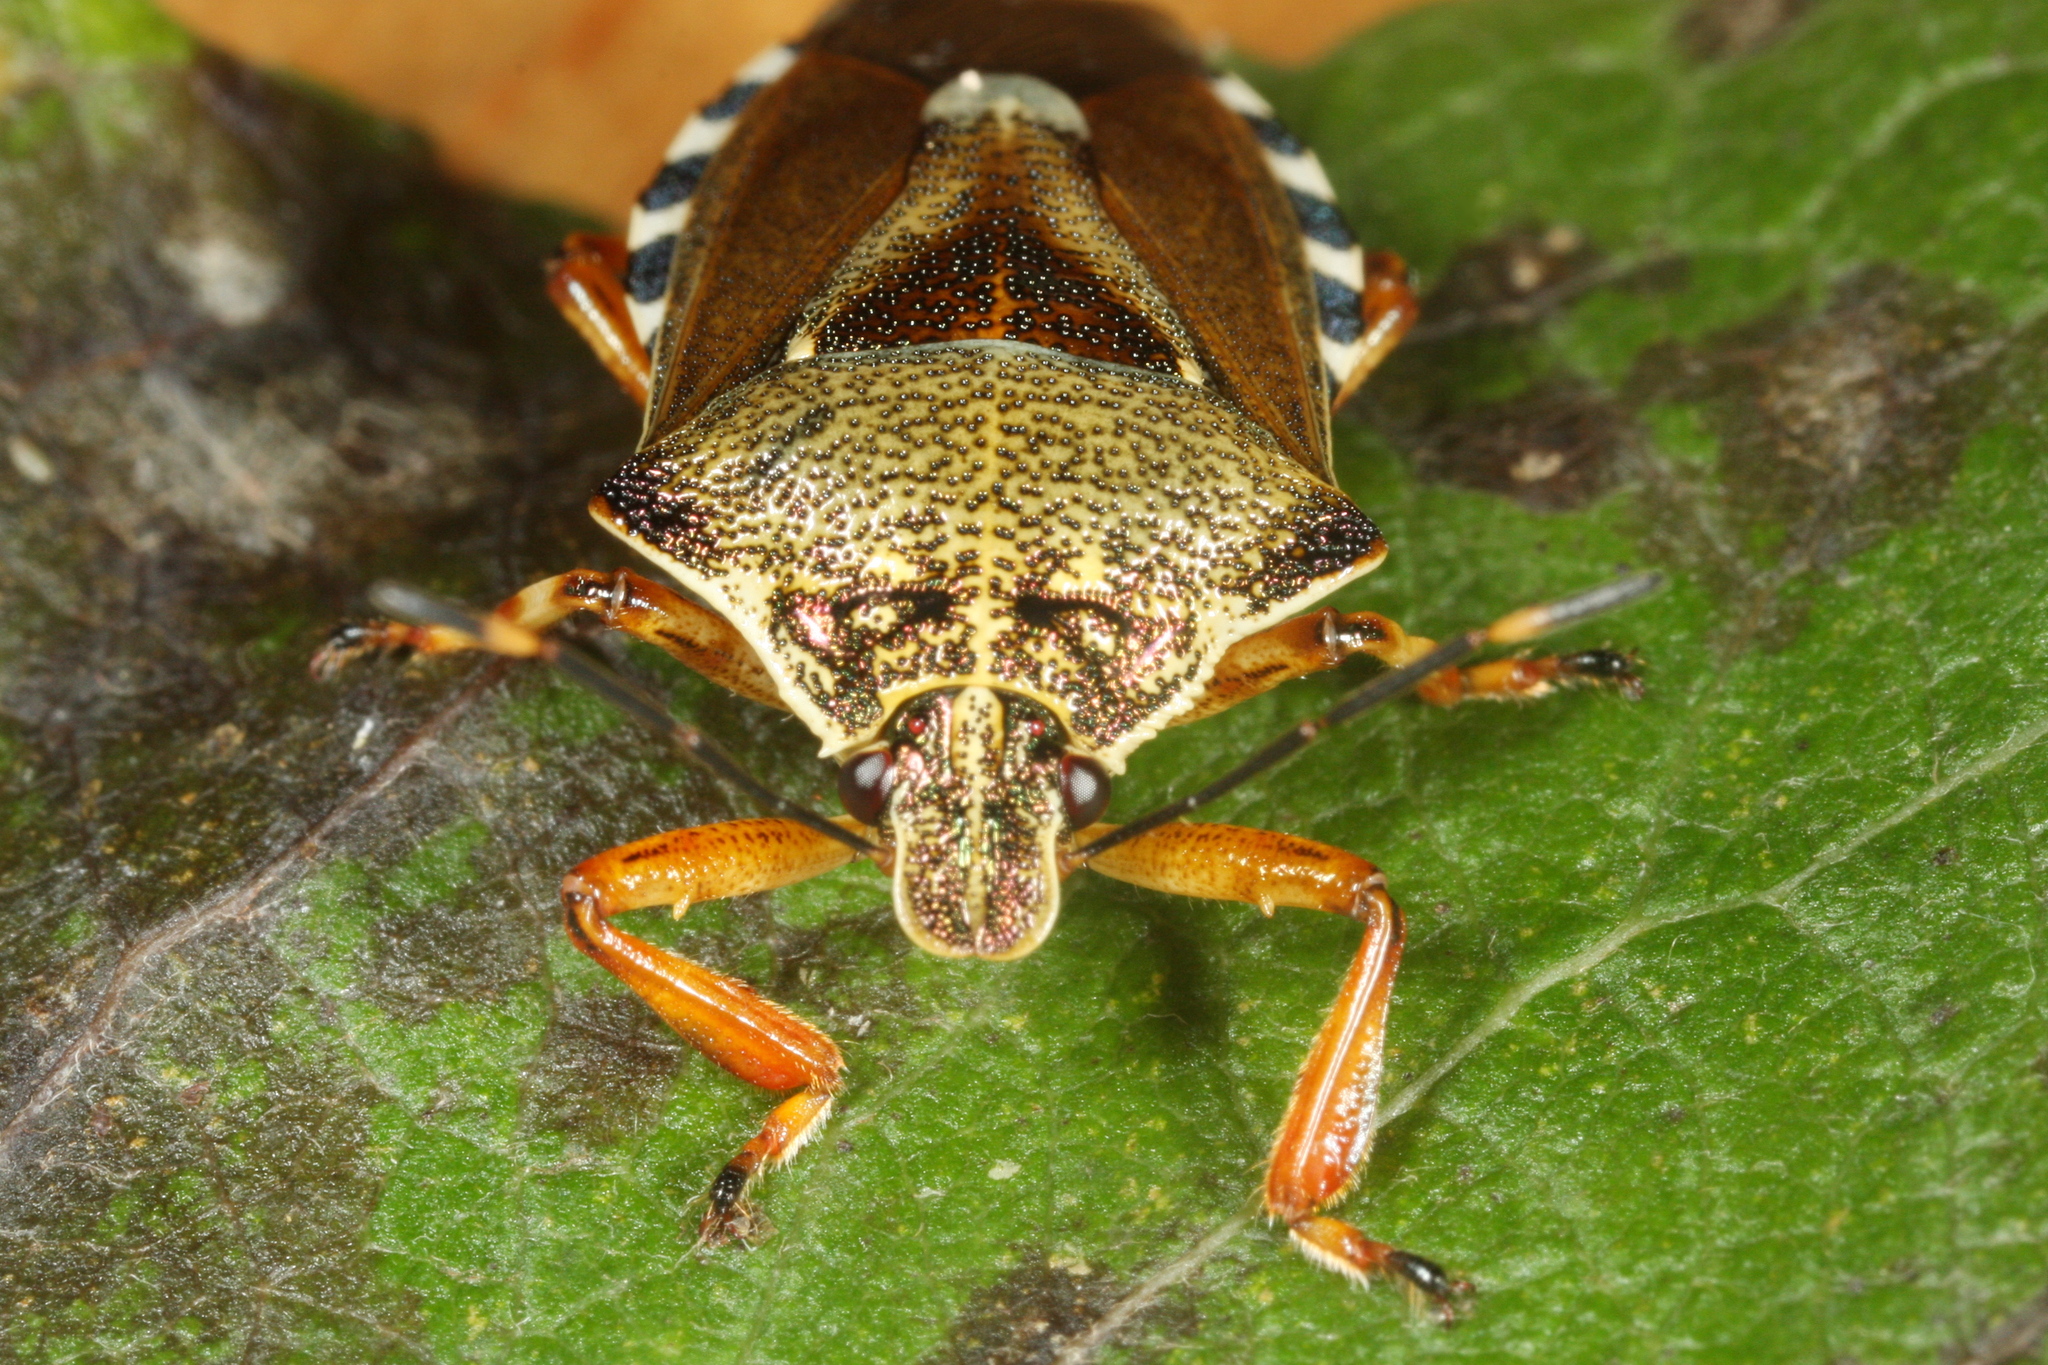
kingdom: Animalia
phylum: Arthropoda
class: Insecta
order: Hemiptera
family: Pentatomidae
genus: Pinthaeus
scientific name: Pinthaeus sanguinipes
